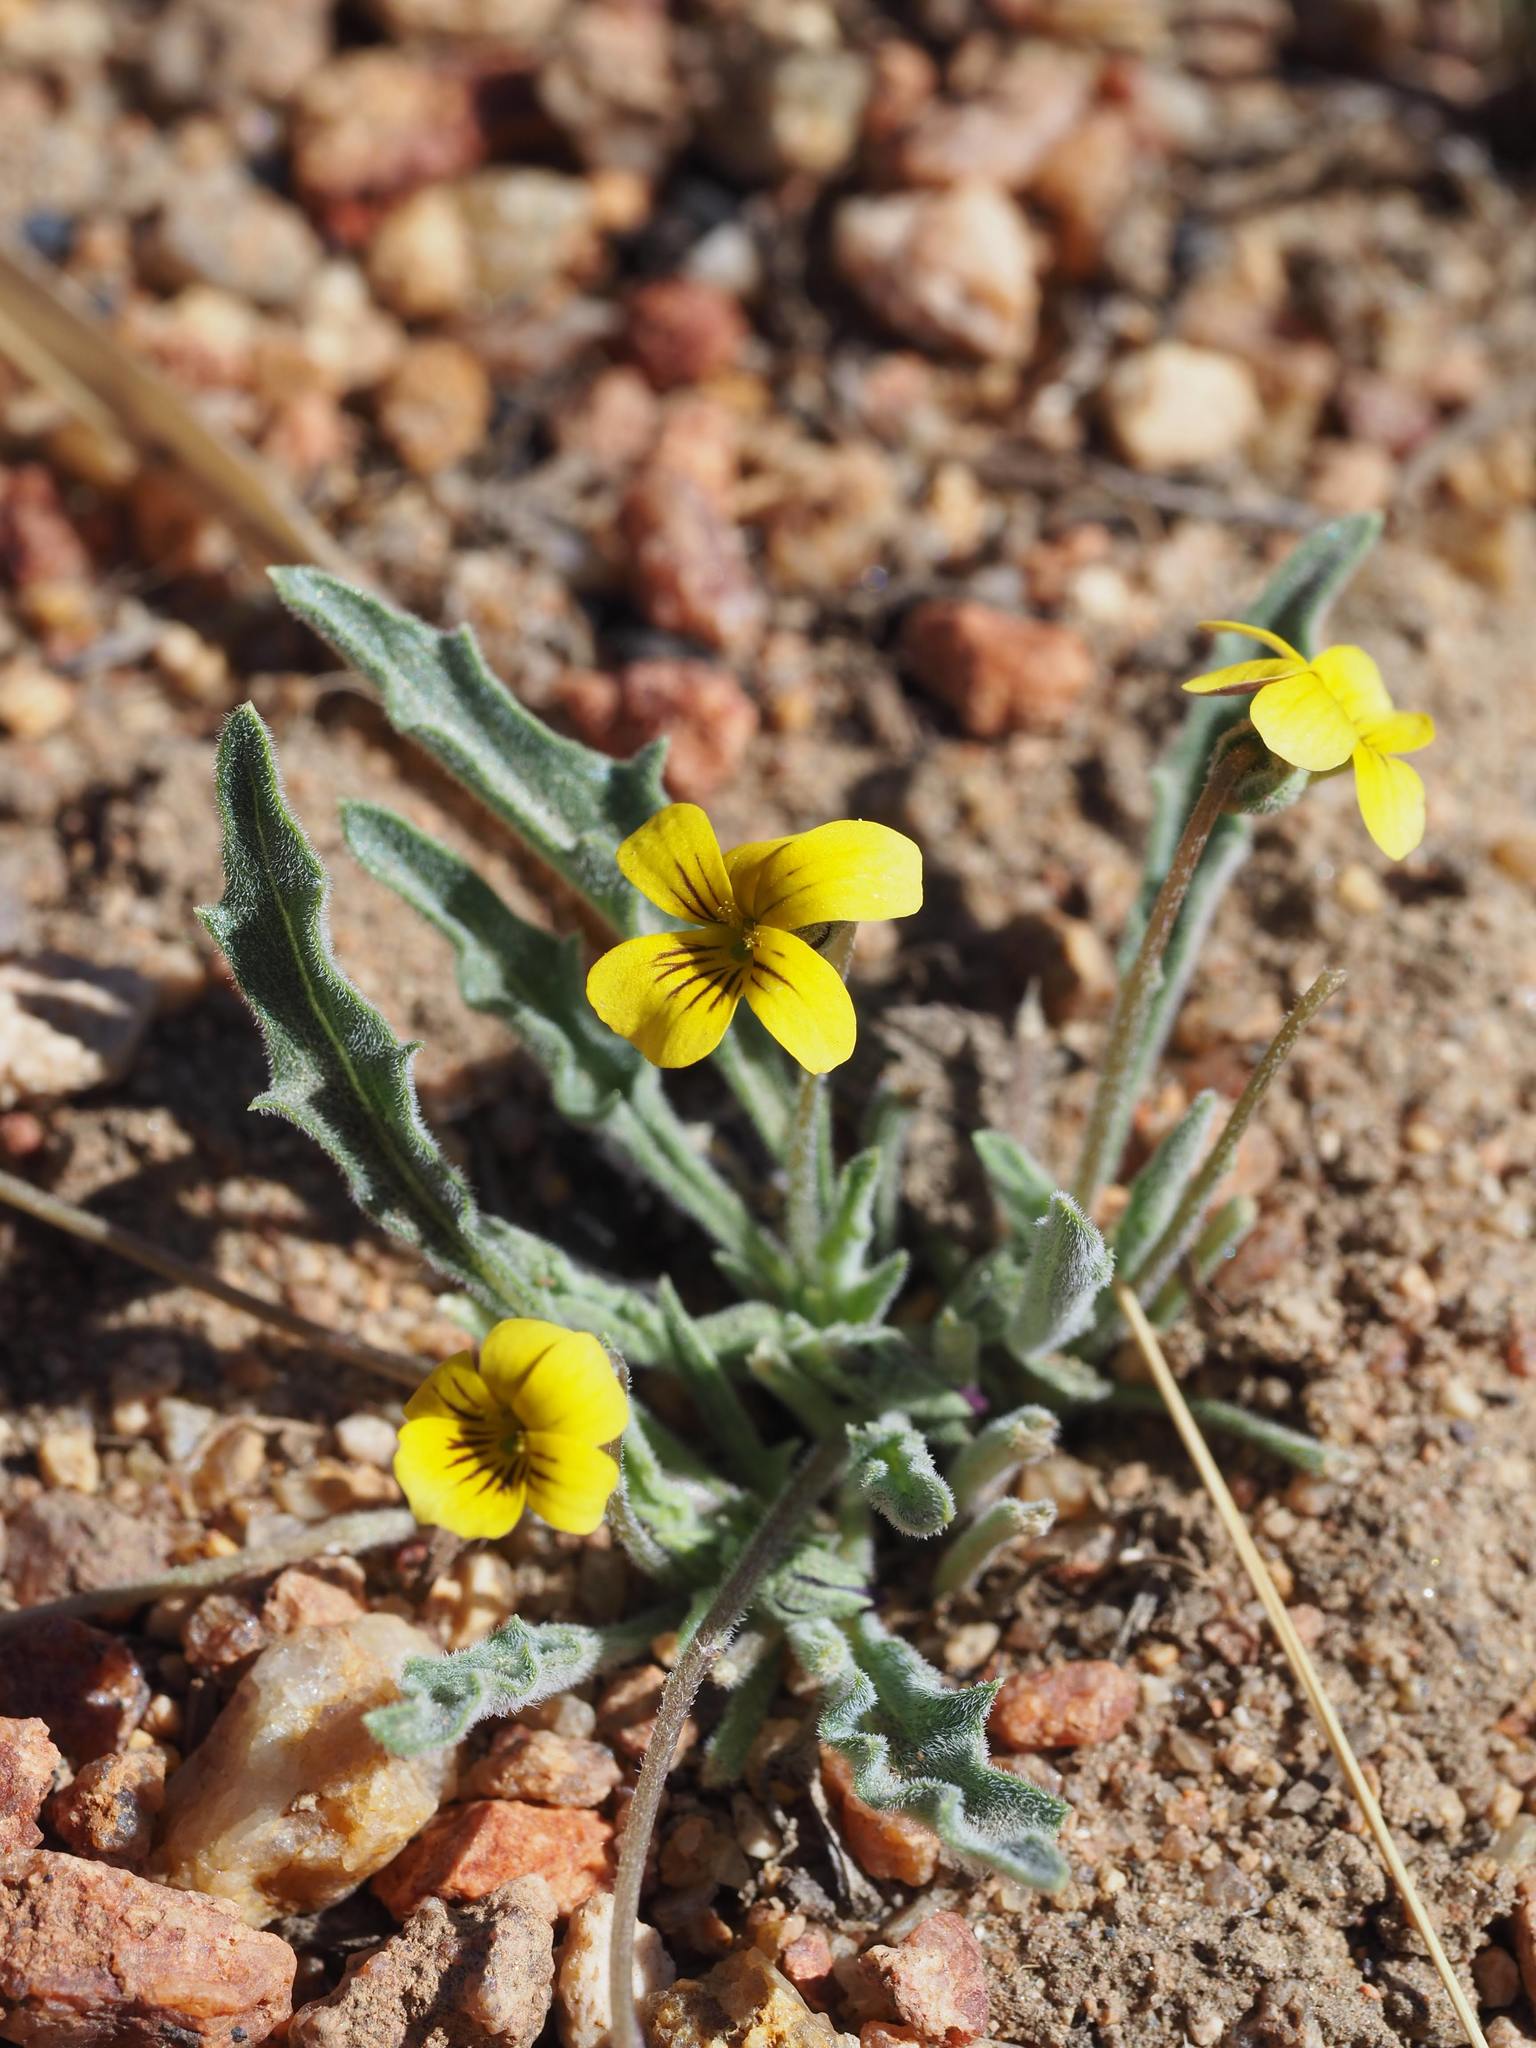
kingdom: Plantae
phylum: Tracheophyta
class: Magnoliopsida
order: Malpighiales
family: Violaceae
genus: Viola
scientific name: Viola pinetorum
